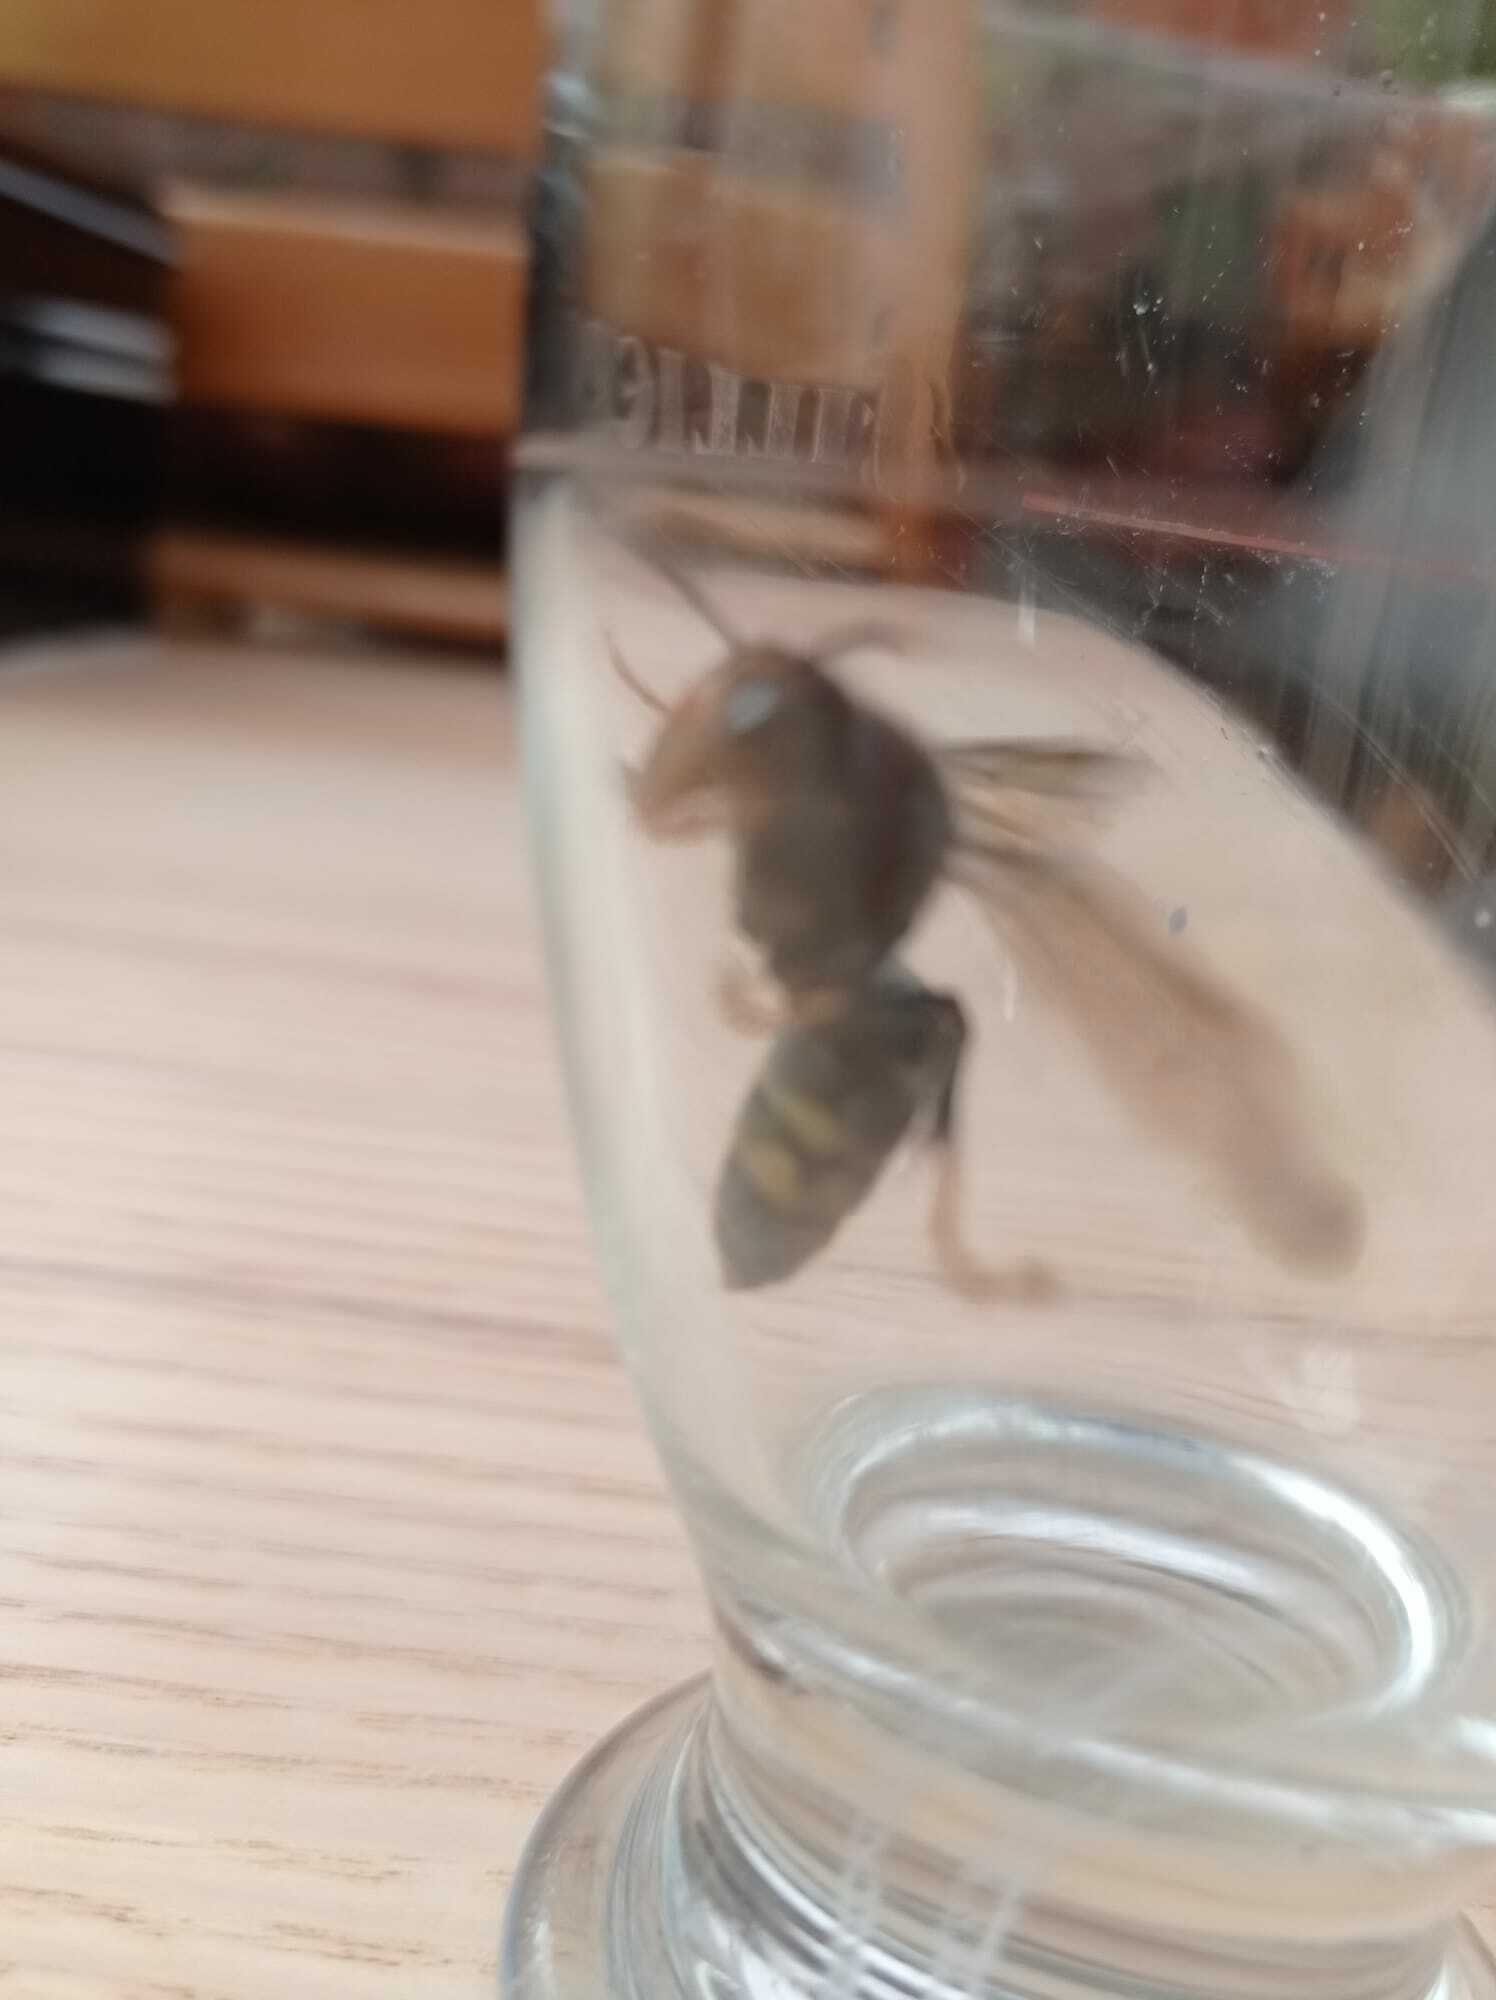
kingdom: Animalia
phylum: Arthropoda
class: Insecta
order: Hymenoptera
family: Vespidae
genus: Vespa
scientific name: Vespa velutina
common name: Asian hornet
